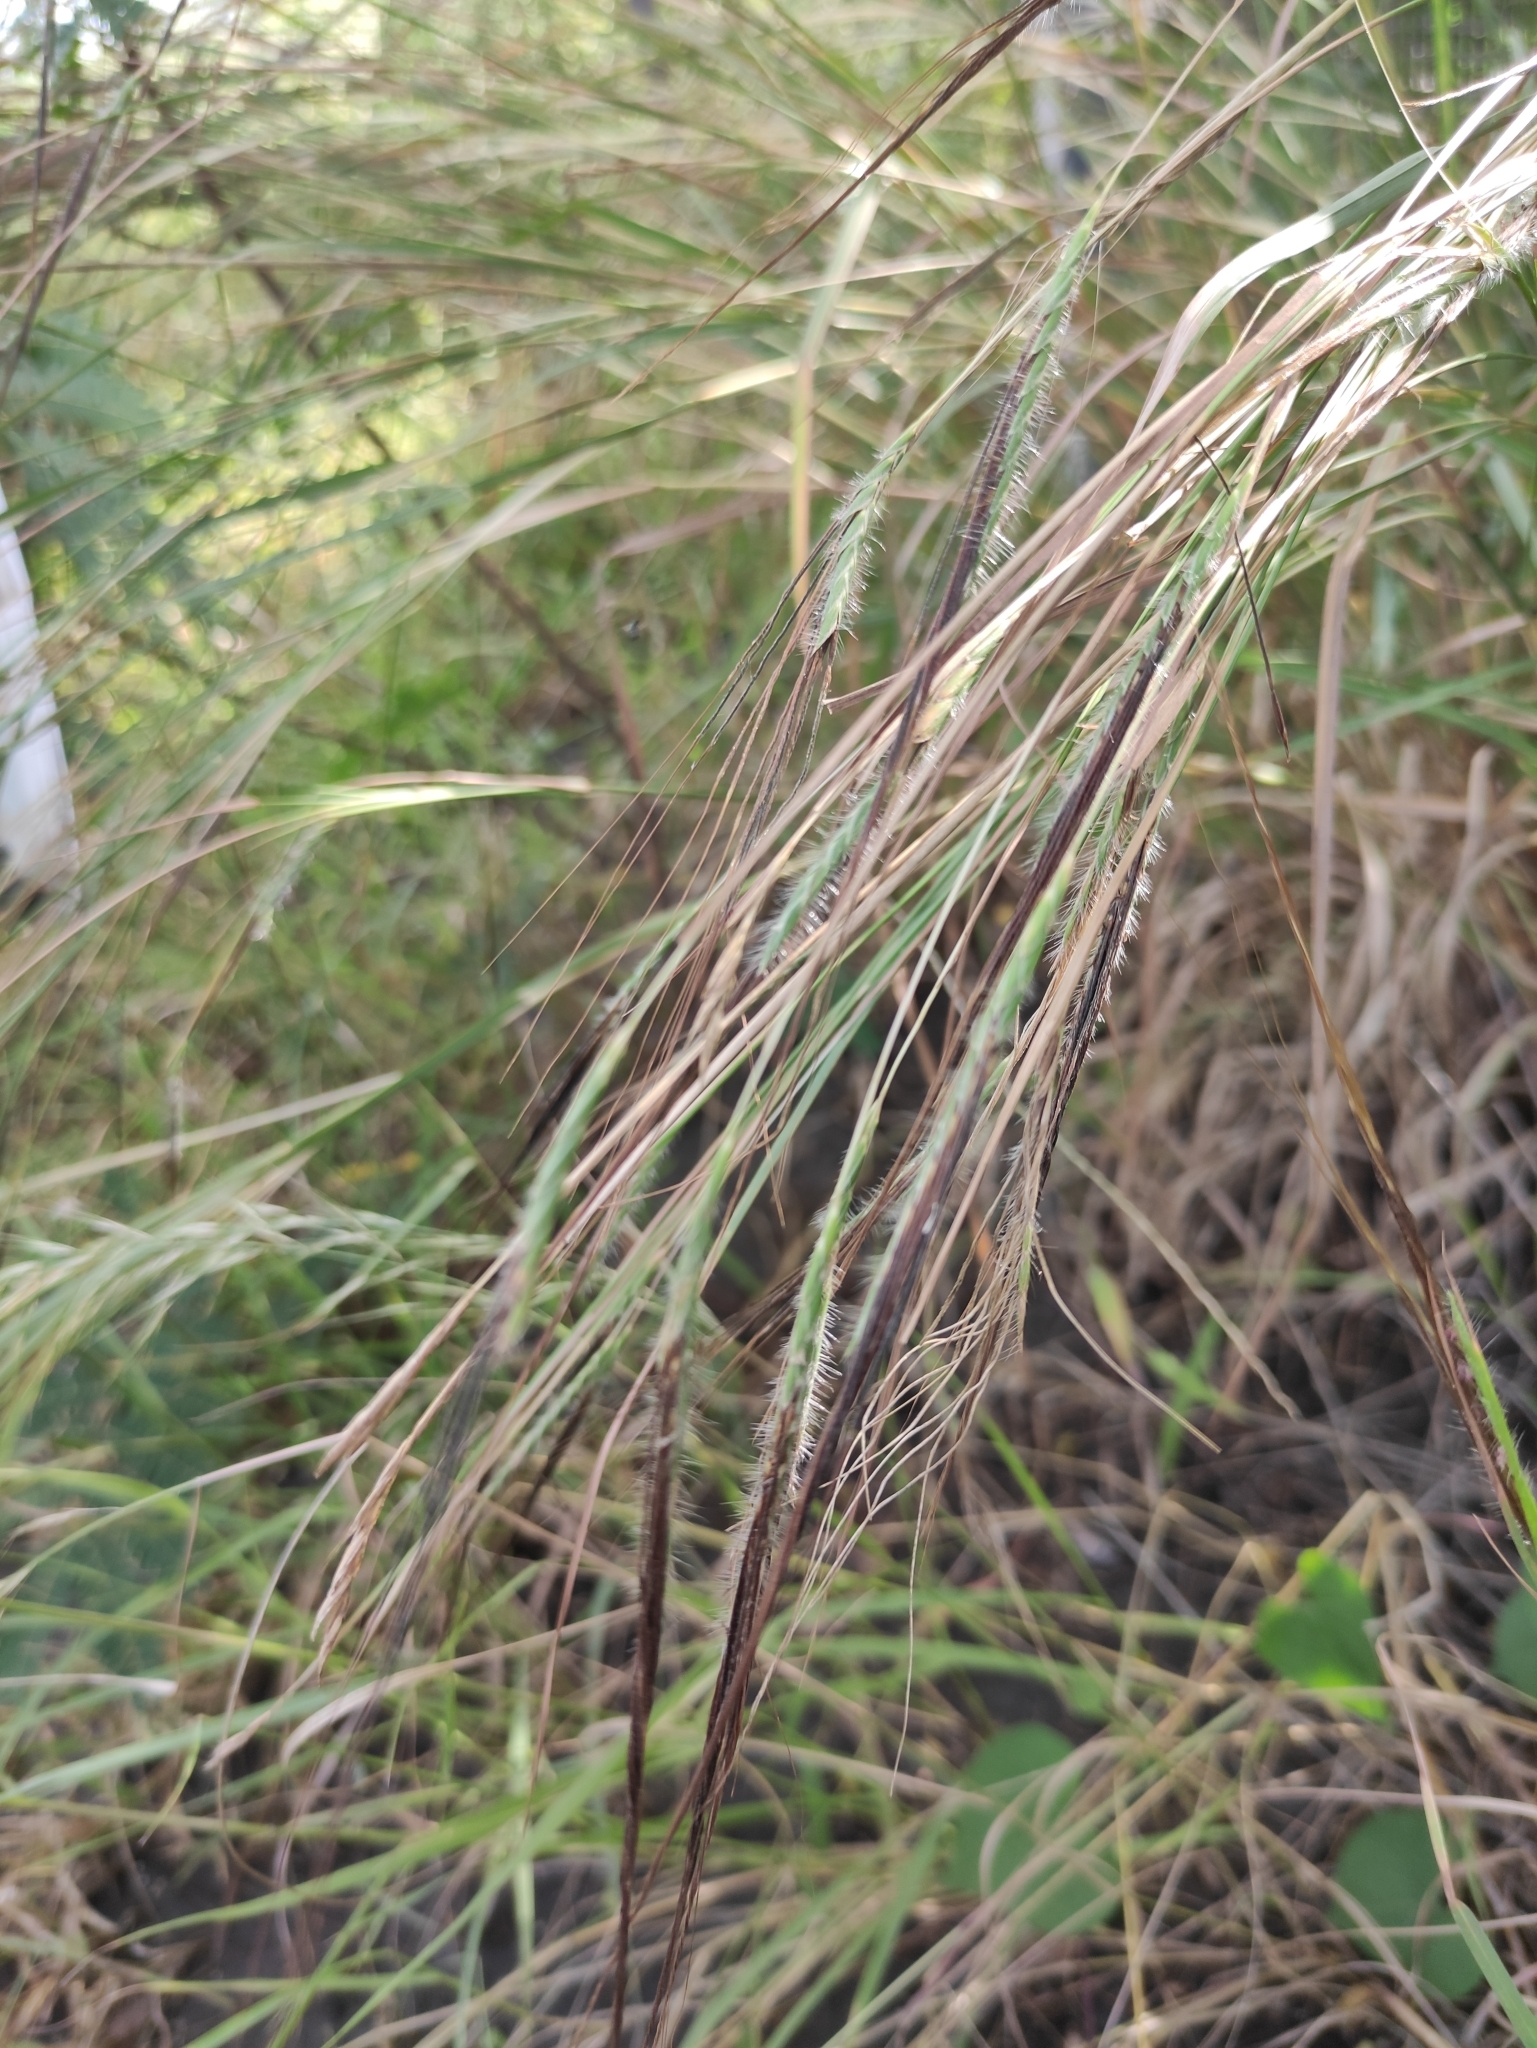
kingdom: Plantae
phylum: Tracheophyta
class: Liliopsida
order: Poales
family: Poaceae
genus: Heteropogon
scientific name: Heteropogon contortus
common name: Tanglehead
